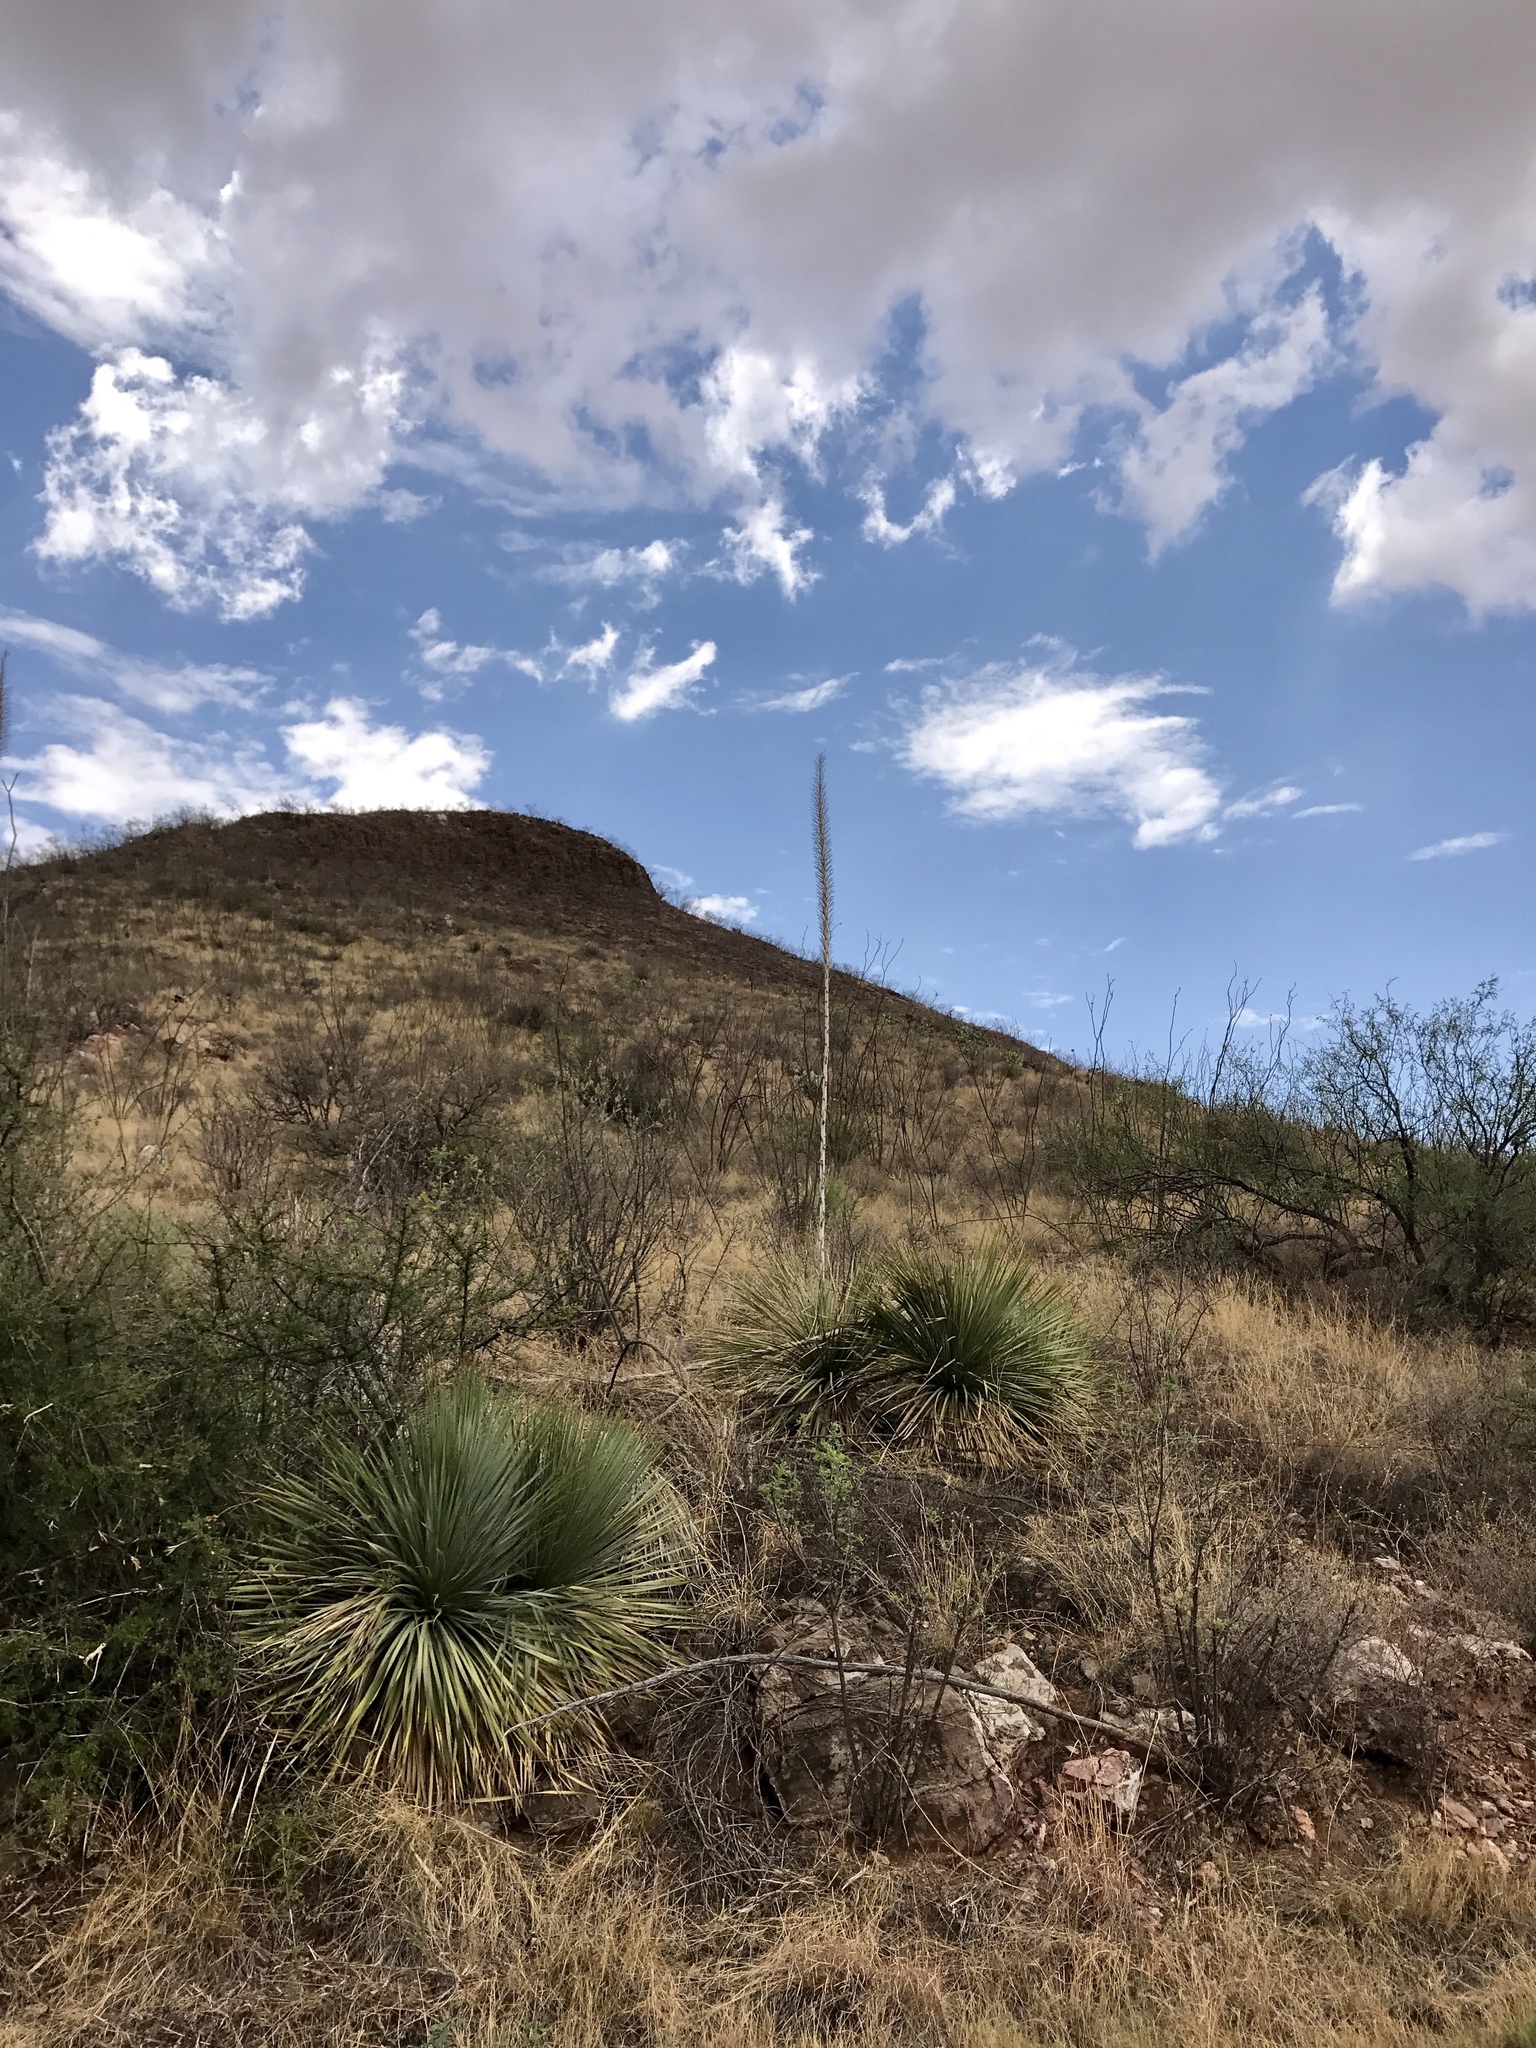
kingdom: Plantae
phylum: Tracheophyta
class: Liliopsida
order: Asparagales
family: Asparagaceae
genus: Dasylirion
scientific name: Dasylirion wheeleri
